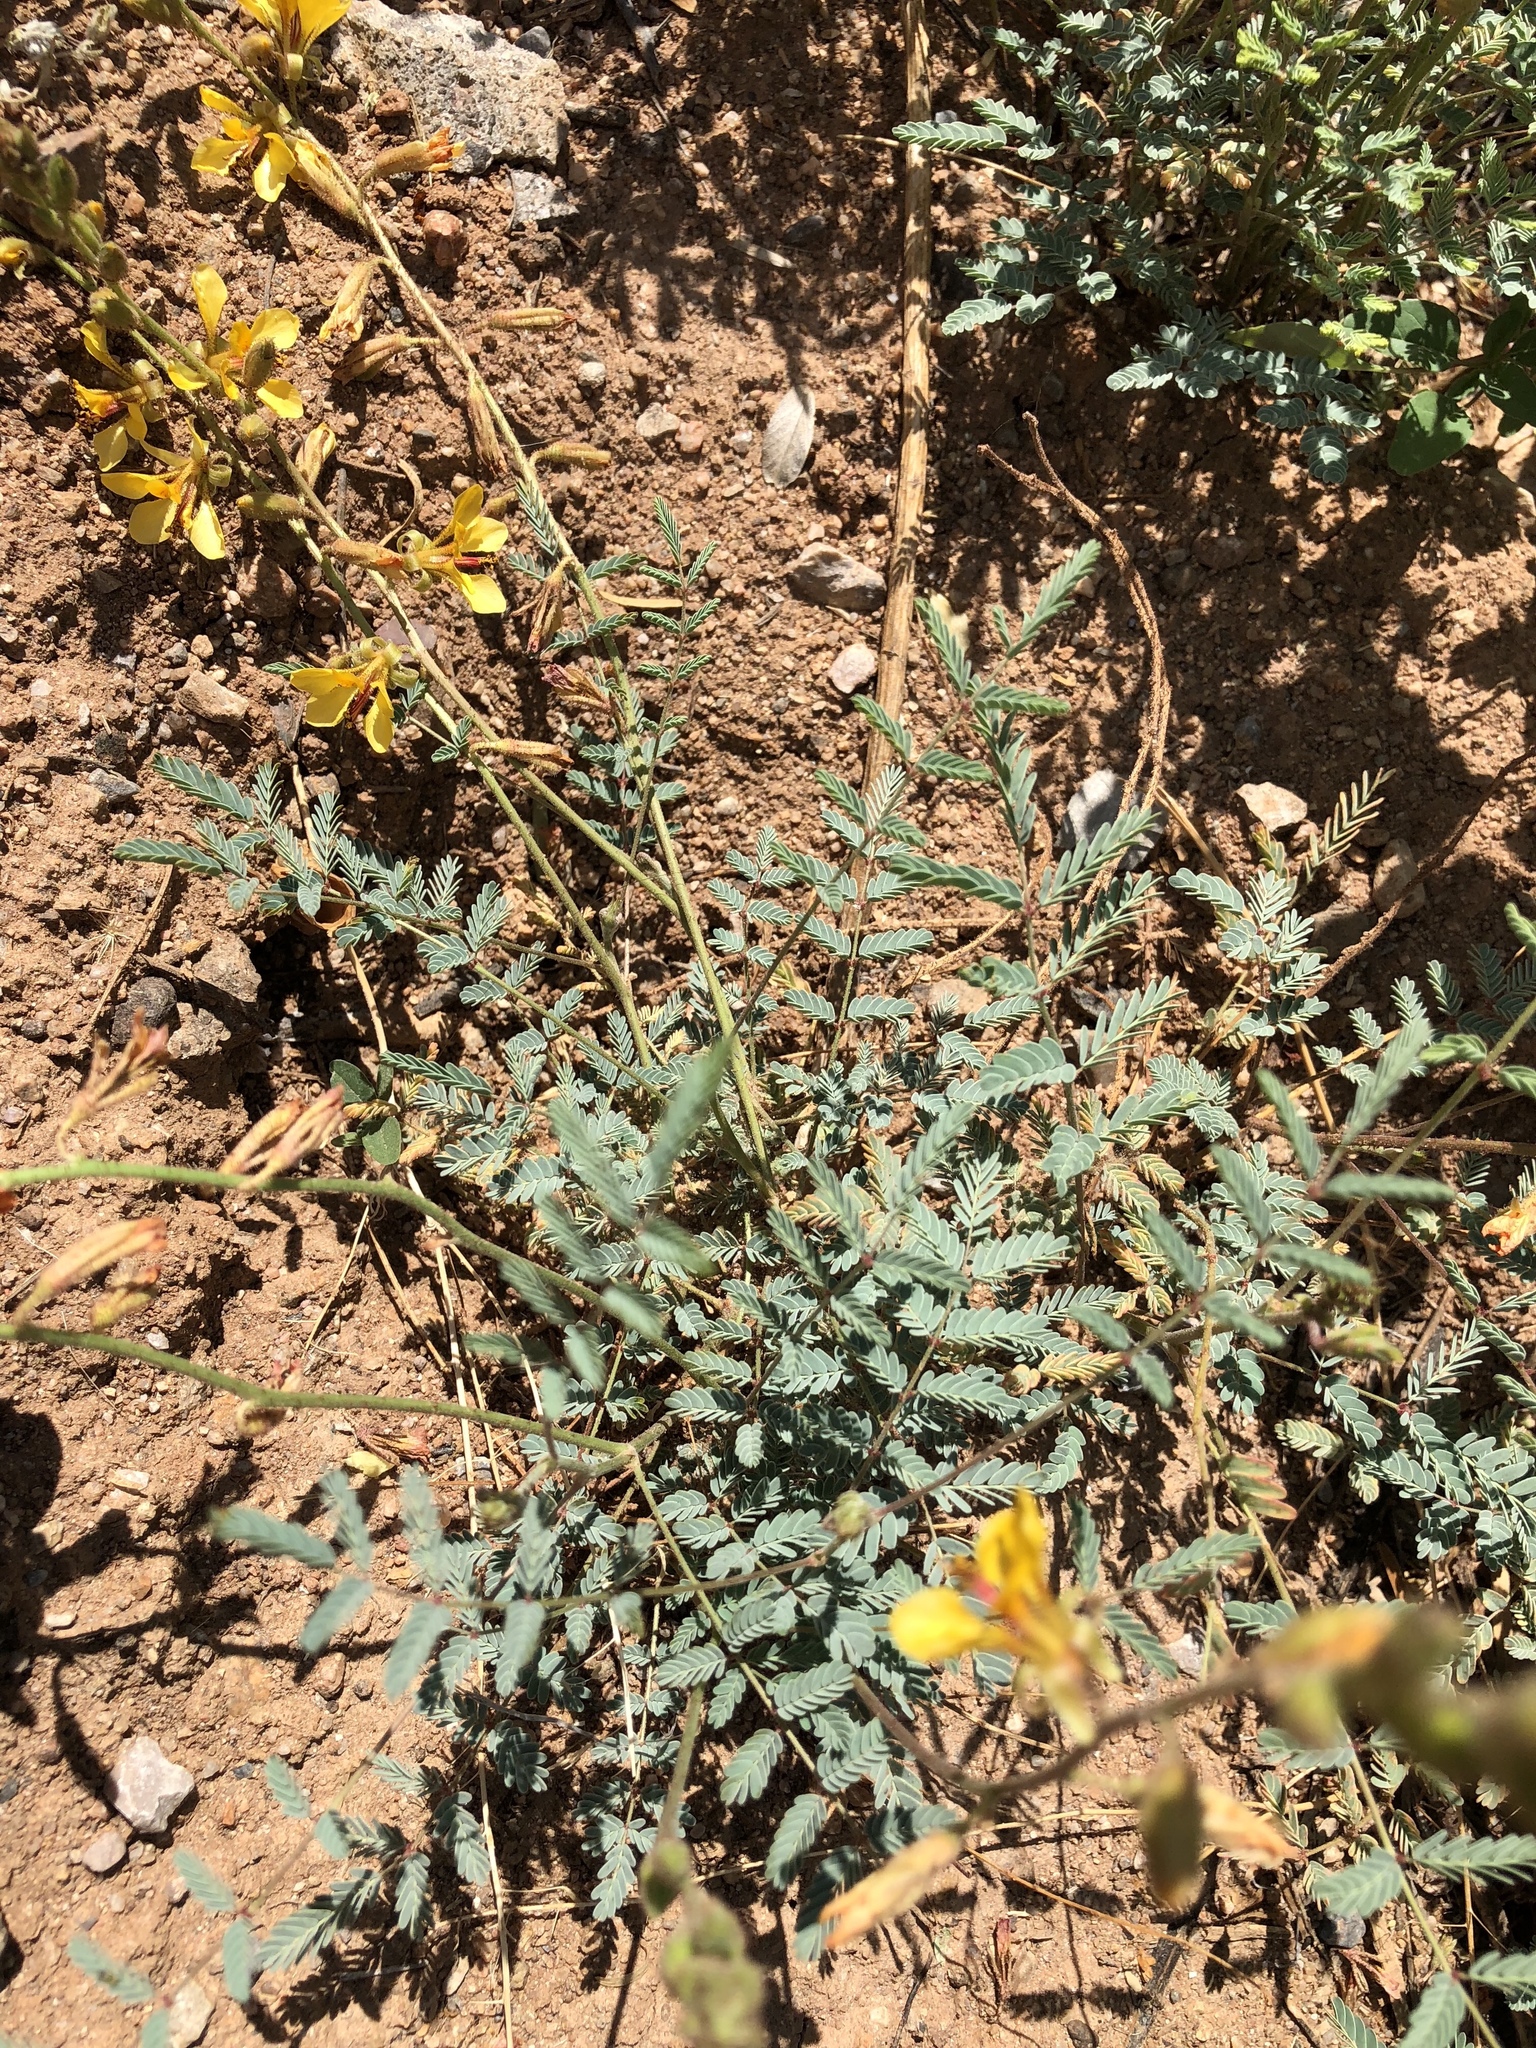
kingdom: Plantae
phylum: Tracheophyta
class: Magnoliopsida
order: Fabales
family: Fabaceae
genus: Hoffmannseggia
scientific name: Hoffmannseggia glauca
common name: Pignut
